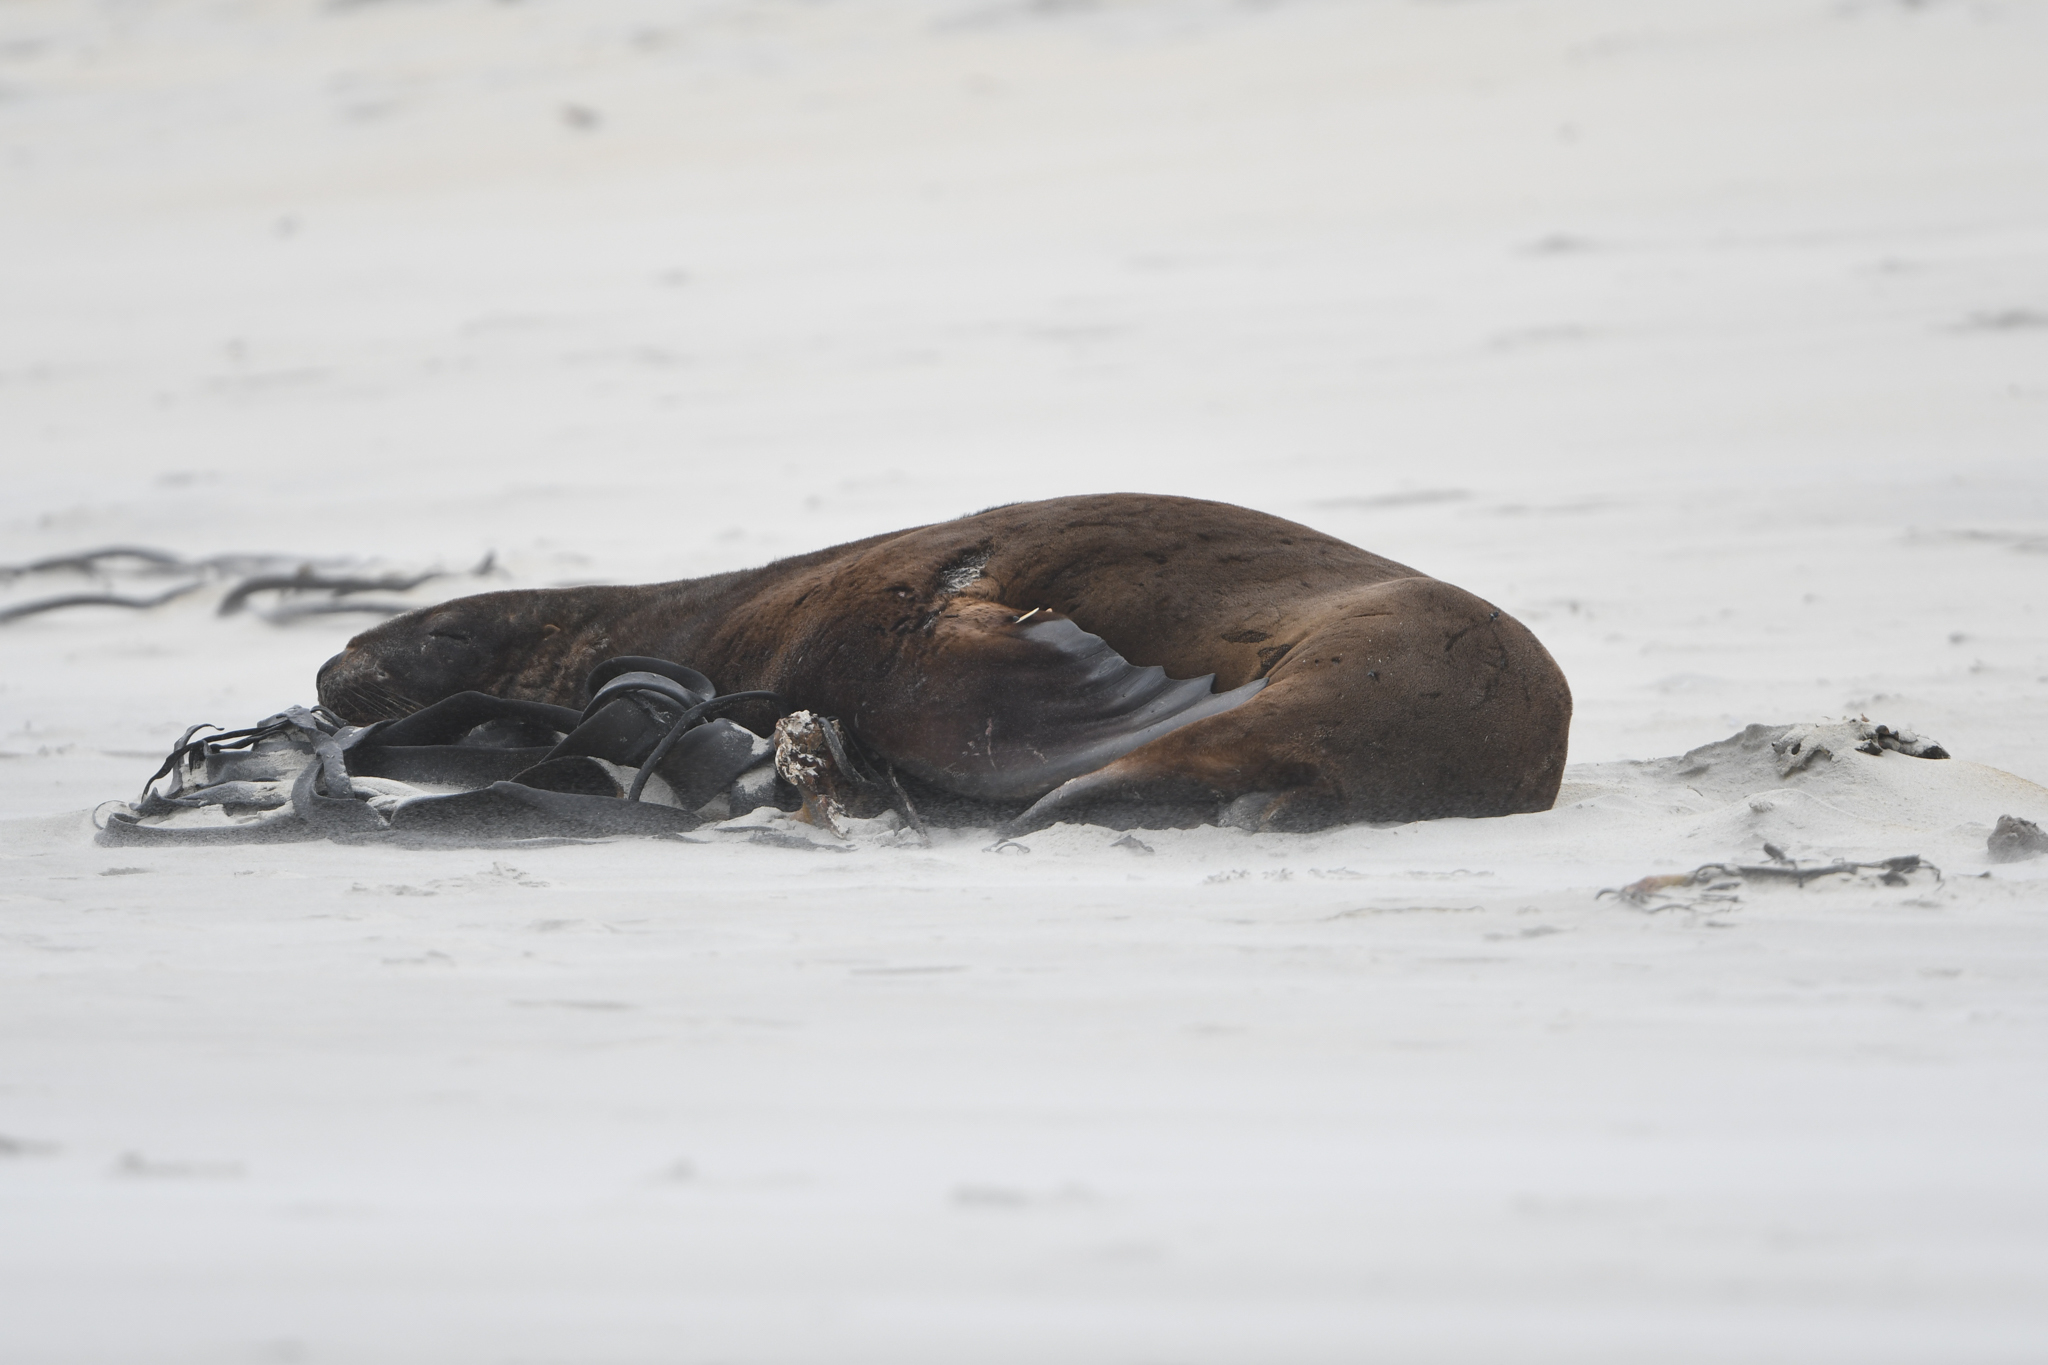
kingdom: Animalia
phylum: Chordata
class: Mammalia
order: Carnivora
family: Otariidae
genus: Phocarctos
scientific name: Phocarctos hookeri
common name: New zealand sea lion
